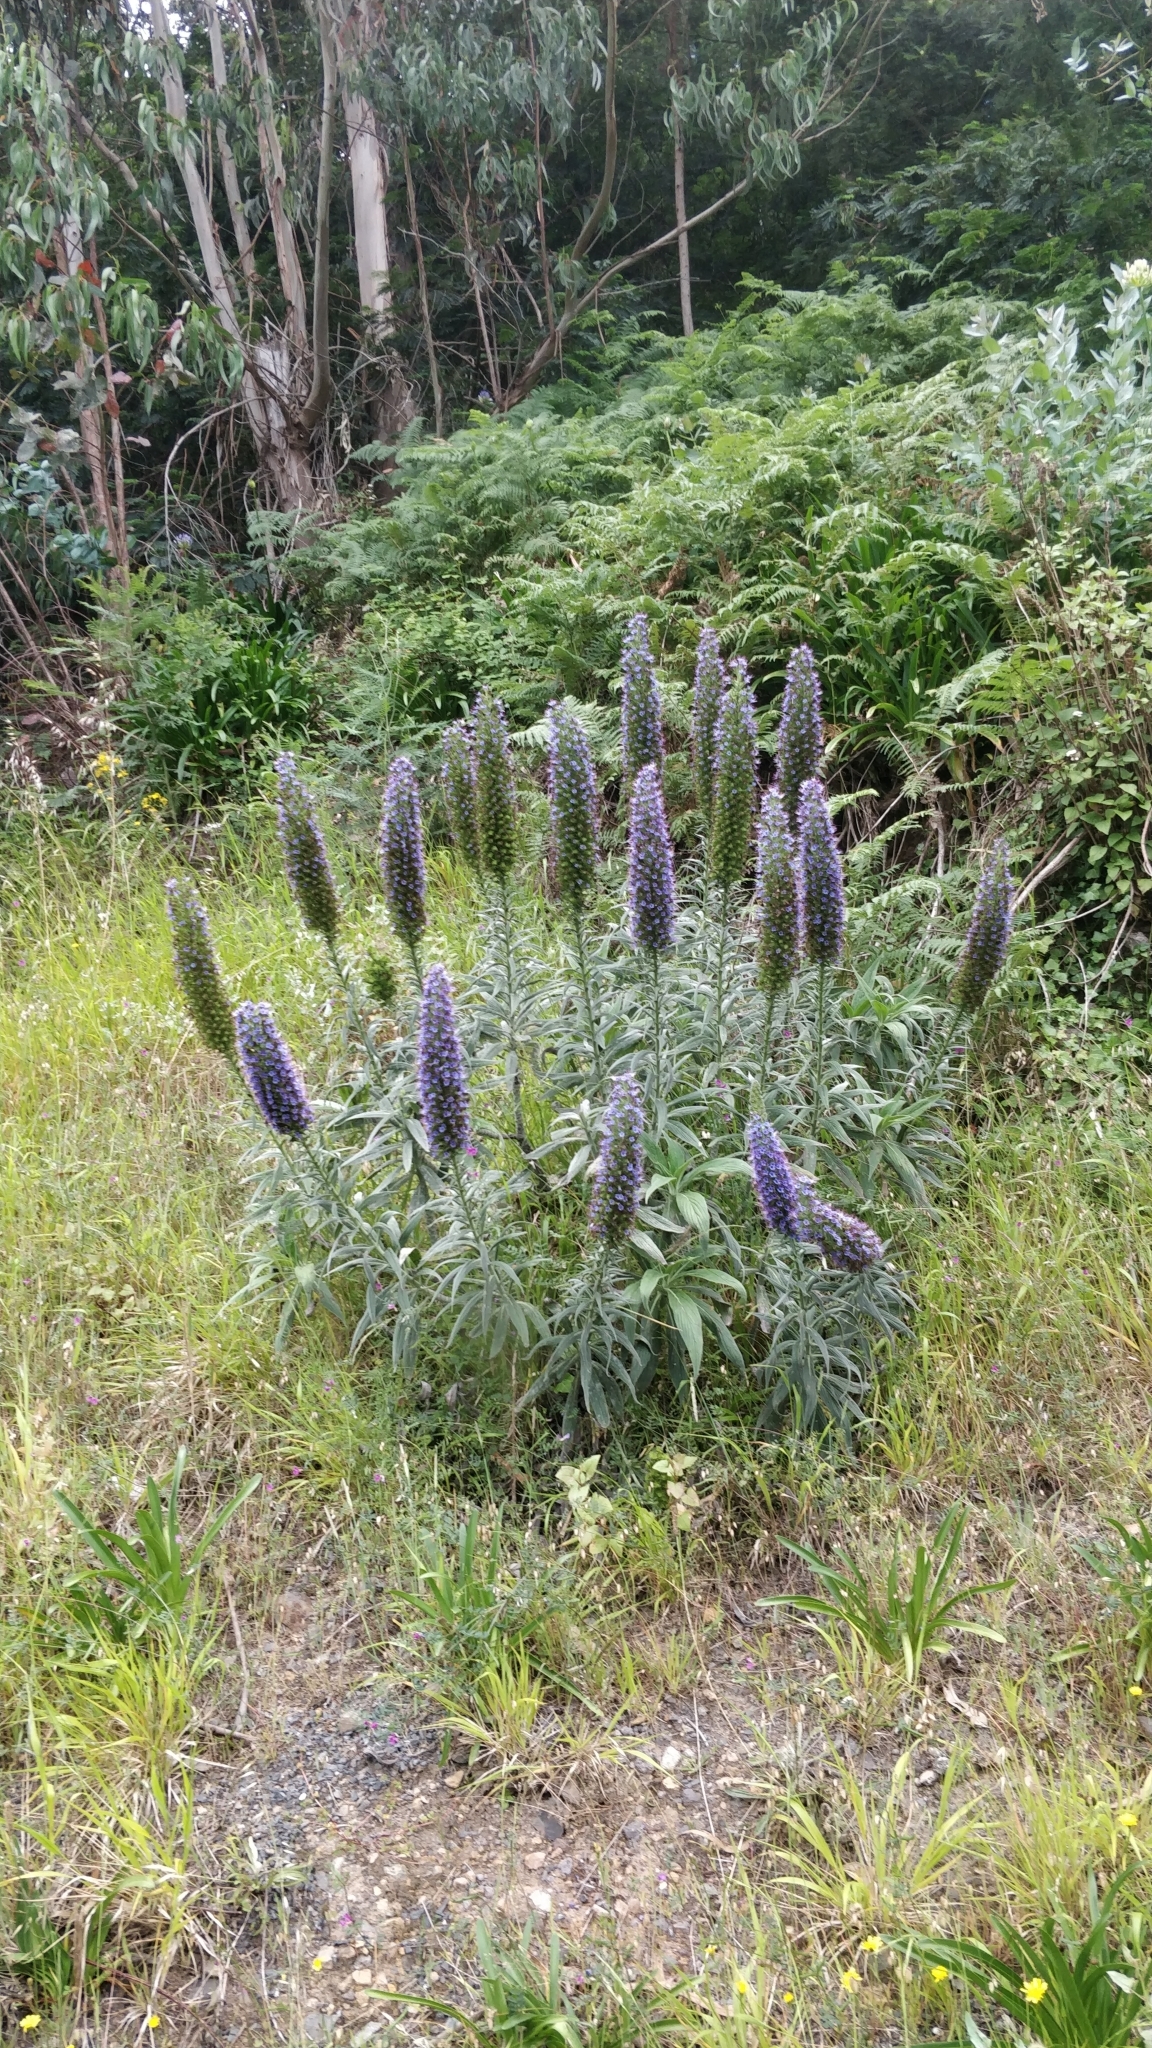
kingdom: Plantae
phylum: Tracheophyta
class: Magnoliopsida
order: Boraginales
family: Boraginaceae
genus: Echium
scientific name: Echium candicans
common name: Pride of madeira
